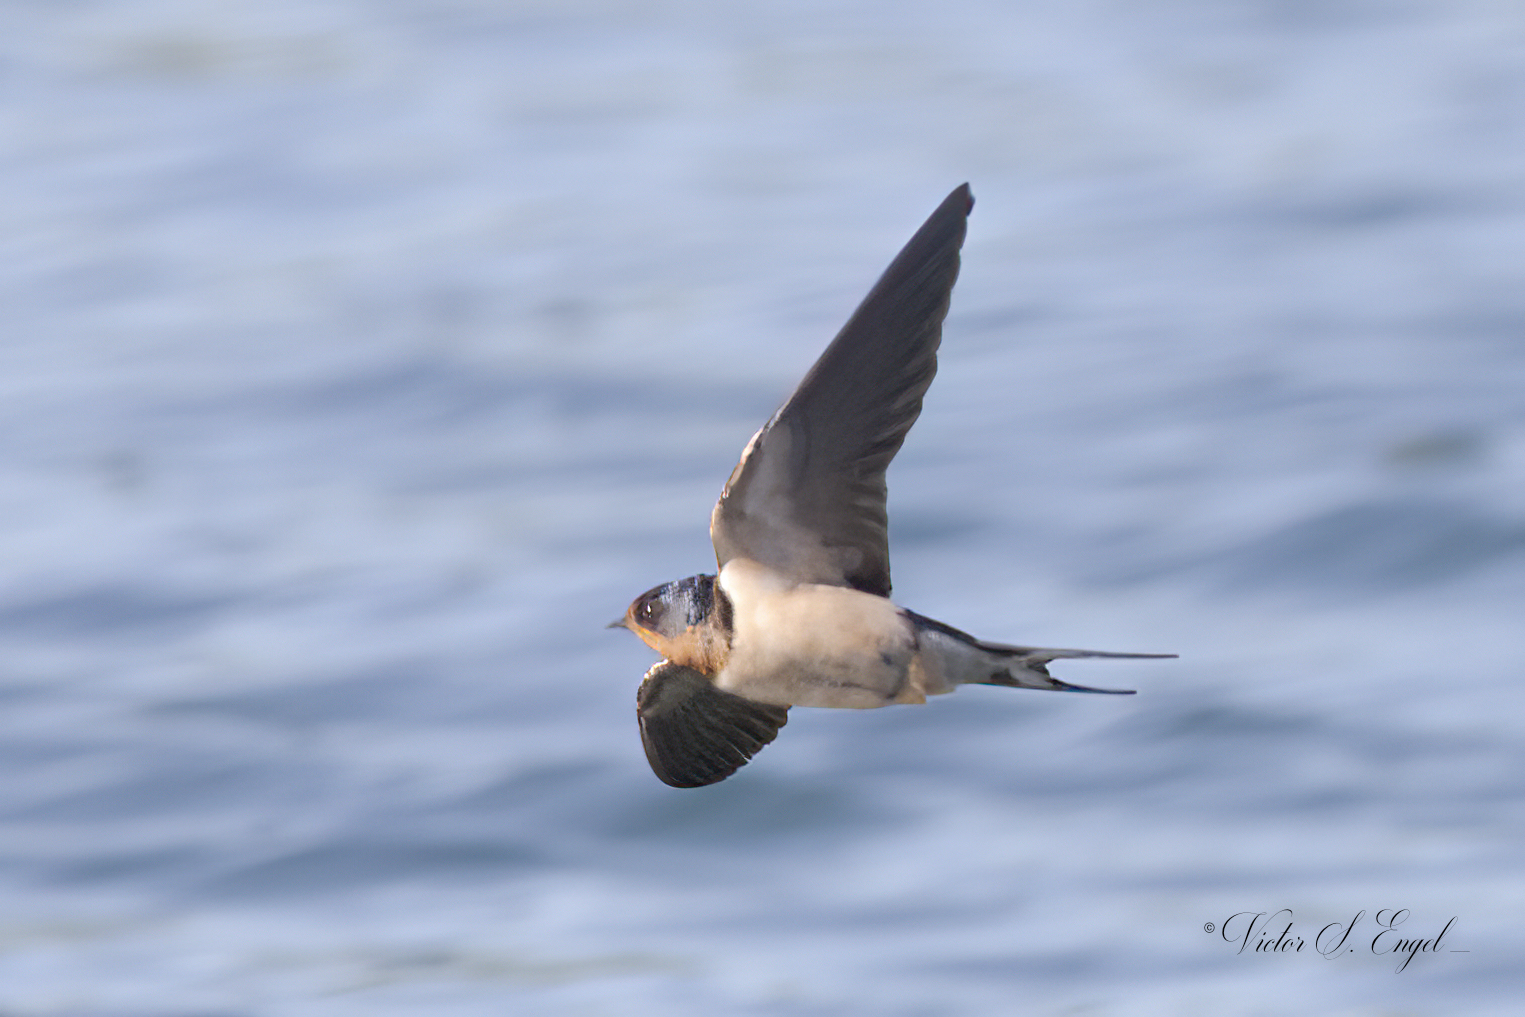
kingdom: Animalia
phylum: Chordata
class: Aves
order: Passeriformes
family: Hirundinidae
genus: Hirundo
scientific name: Hirundo rustica
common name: Barn swallow
